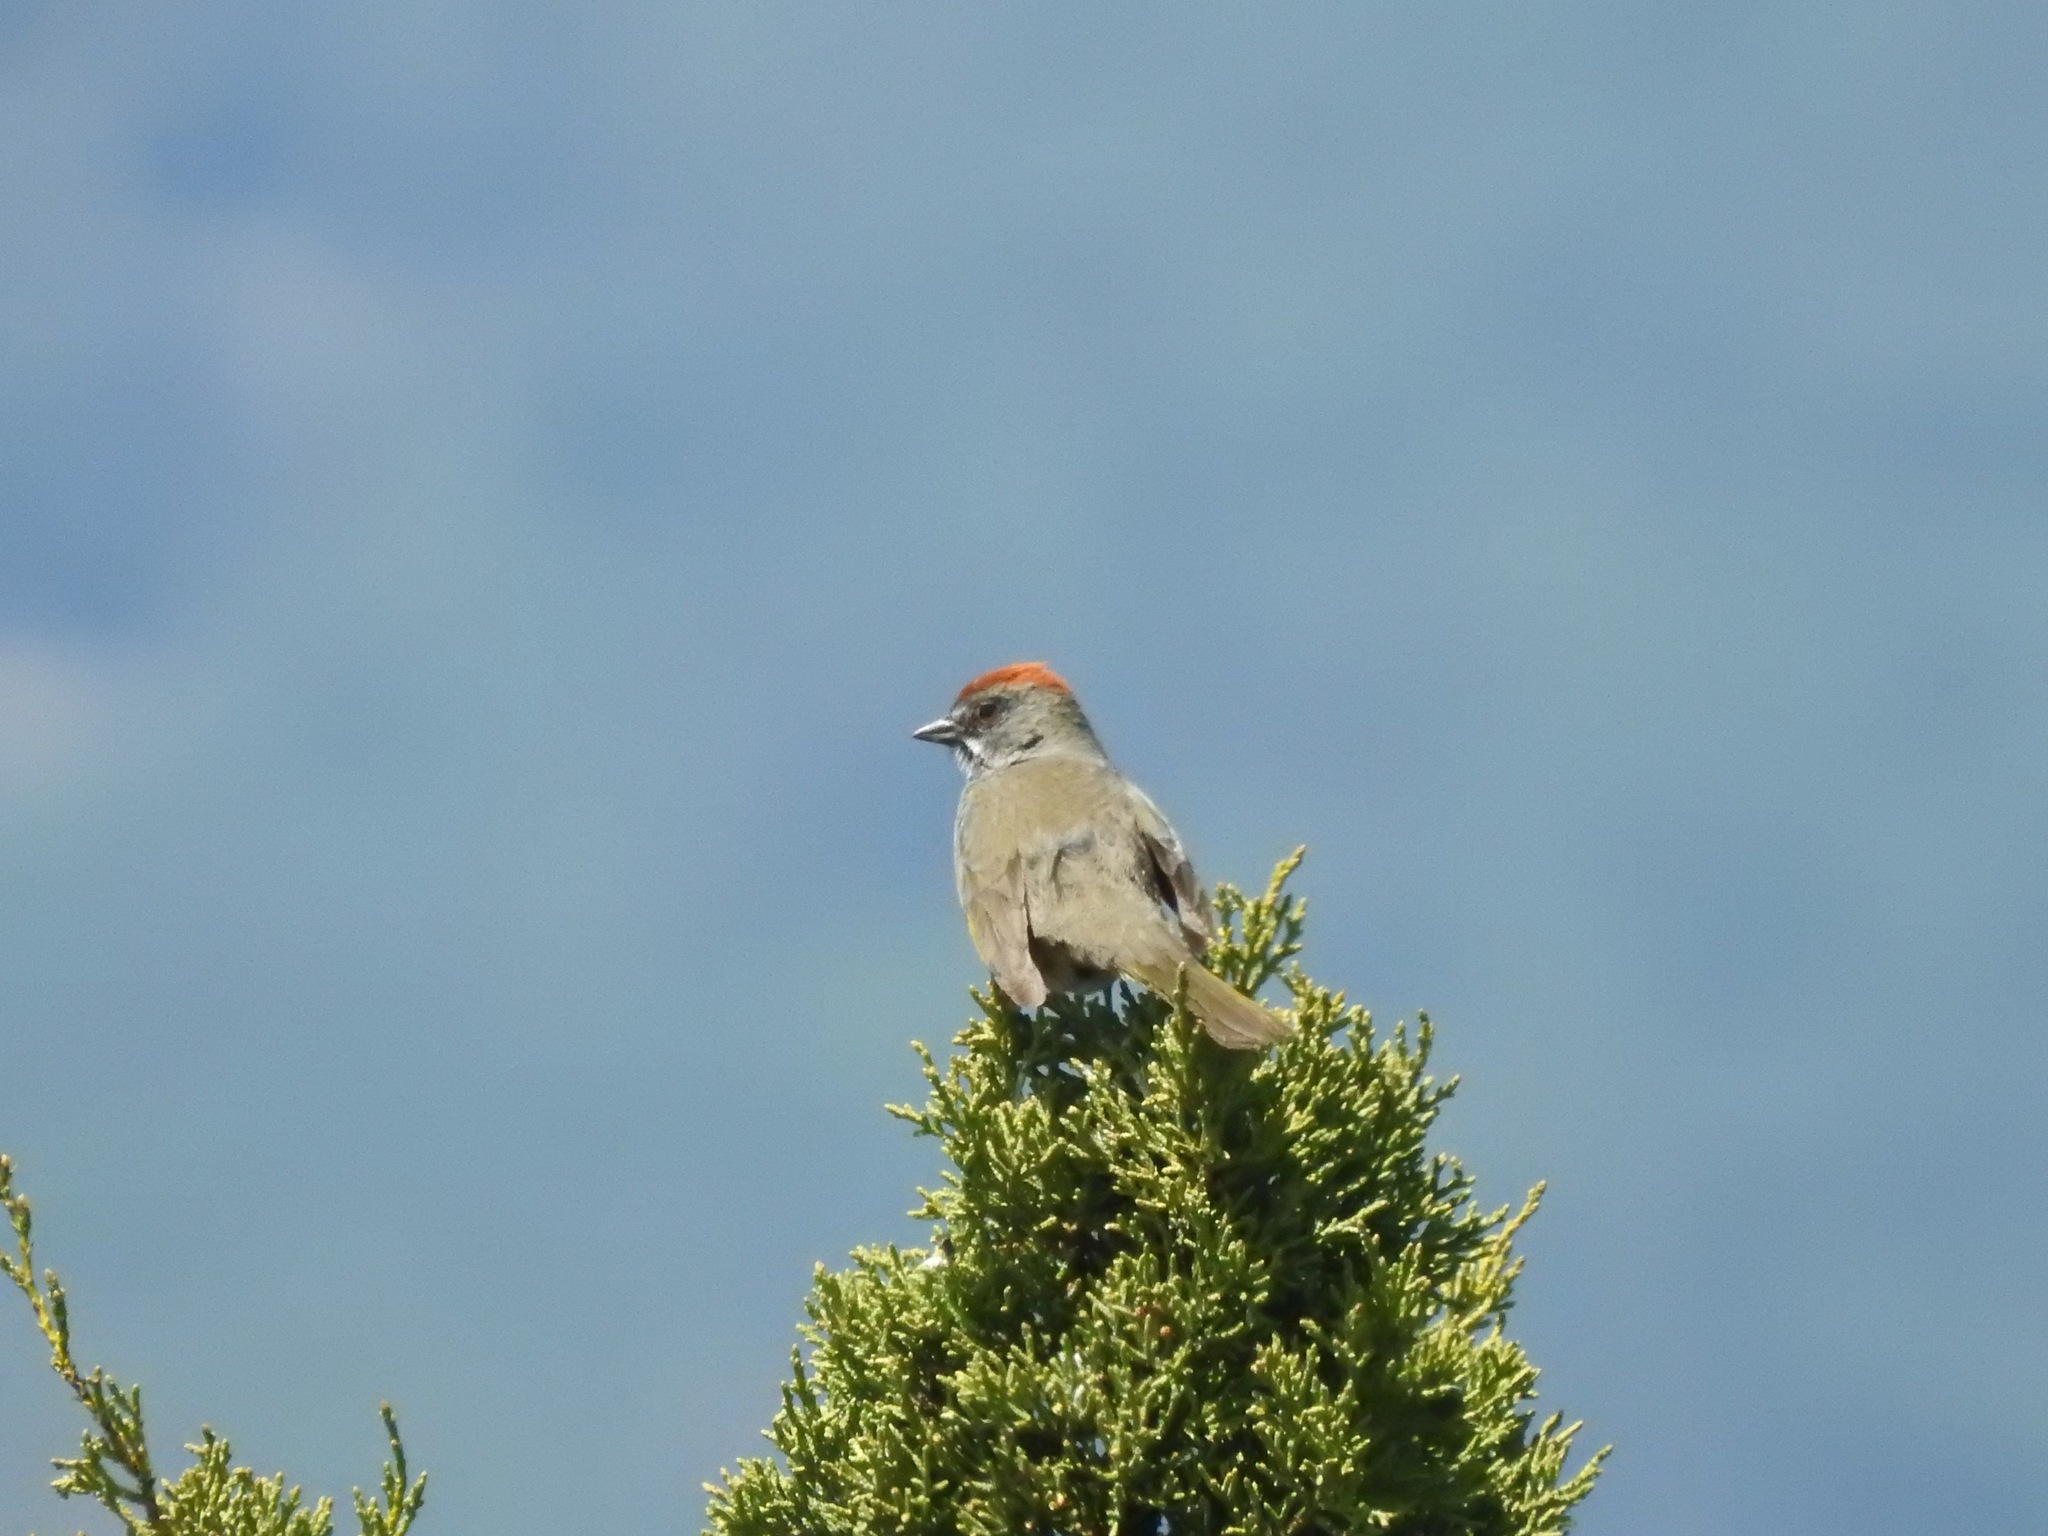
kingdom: Animalia
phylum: Chordata
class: Aves
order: Passeriformes
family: Passerellidae
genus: Pipilo
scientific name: Pipilo chlorurus
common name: Green-tailed towhee
